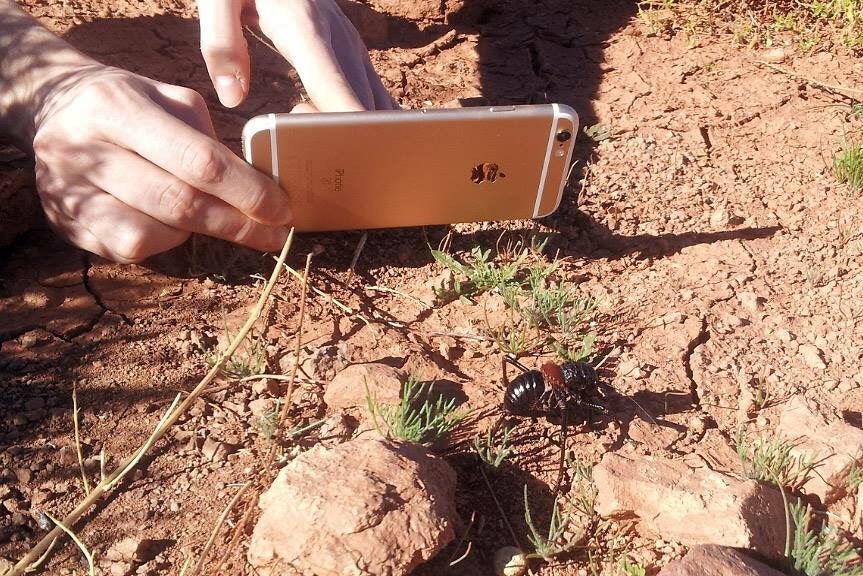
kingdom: Animalia
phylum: Arthropoda
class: Insecta
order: Orthoptera
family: Tettigoniidae
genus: Eugaster
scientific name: Eugaster guyoni
